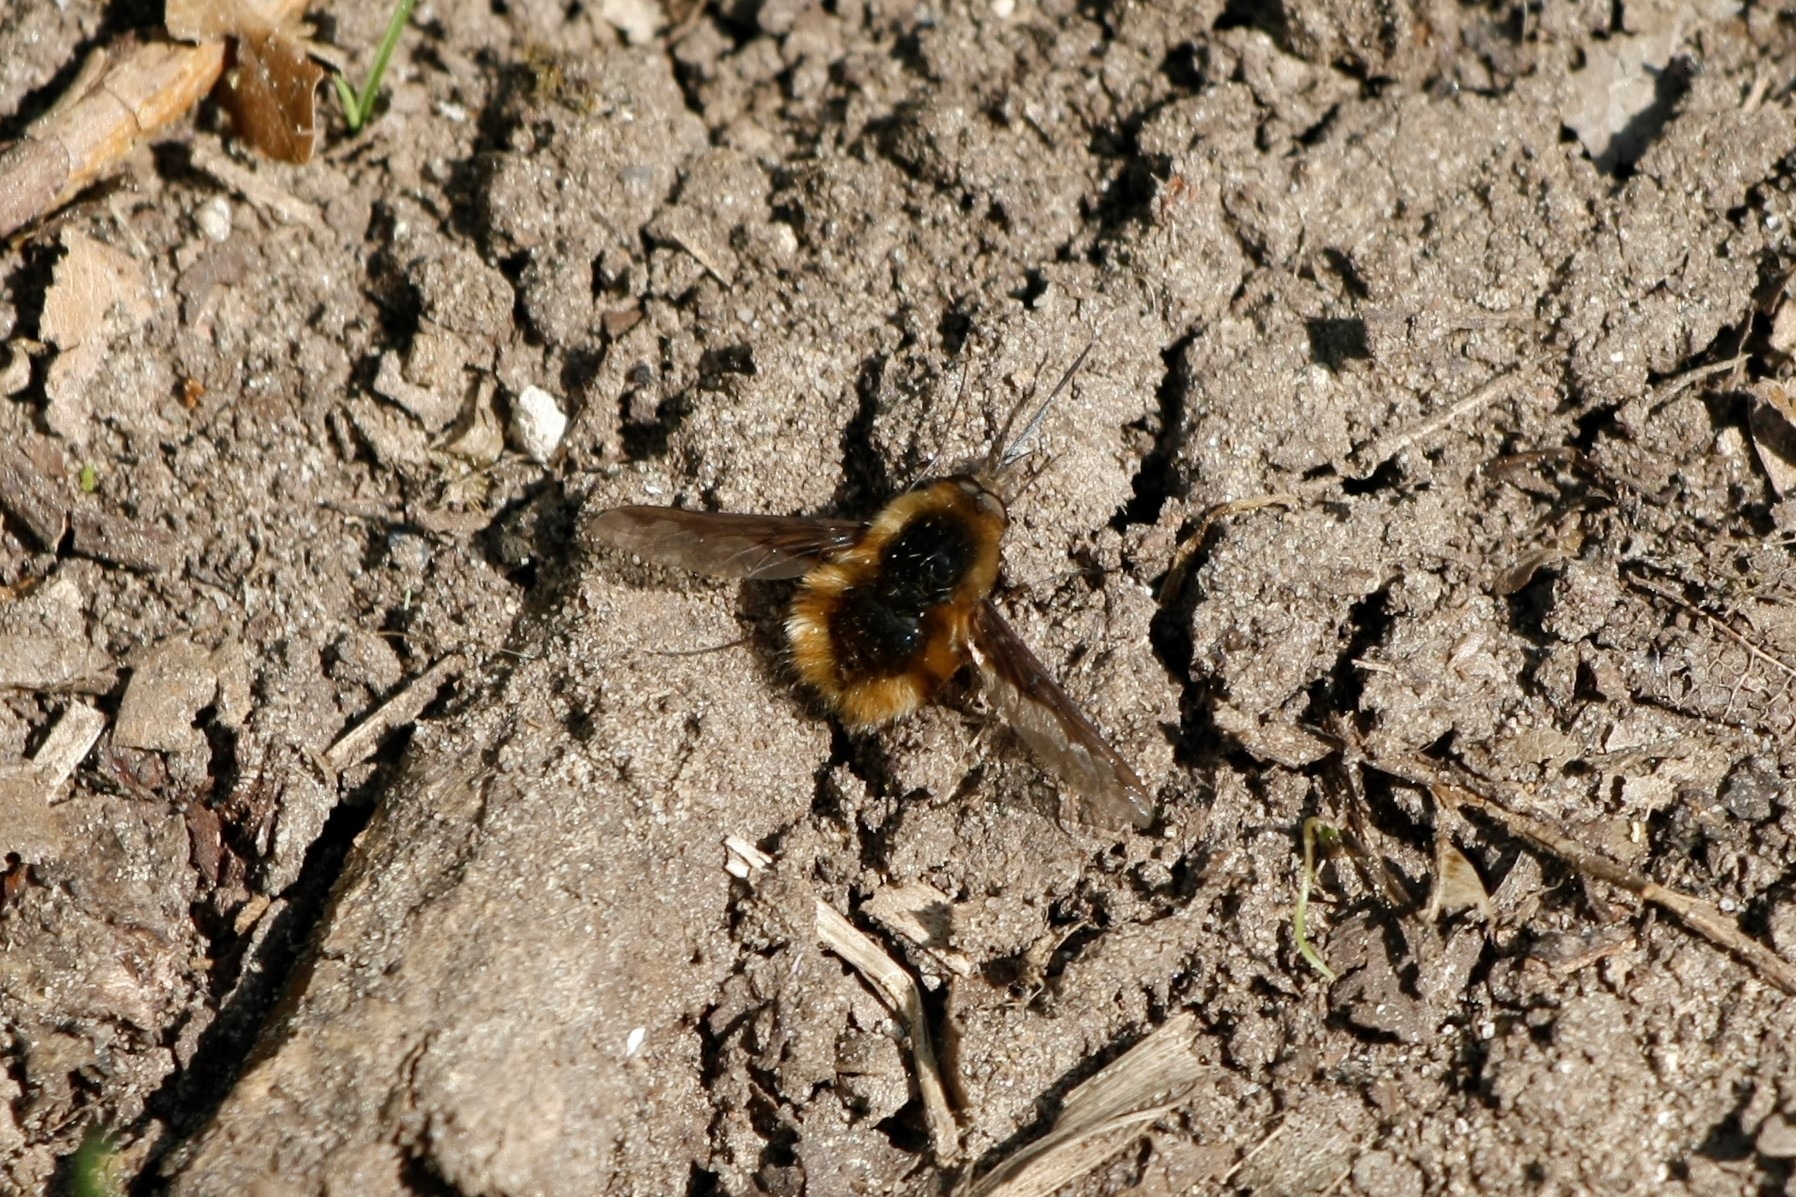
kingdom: Animalia
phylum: Arthropoda
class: Insecta
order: Diptera
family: Bombyliidae
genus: Bombylius
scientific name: Bombylius major
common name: Bee fly
